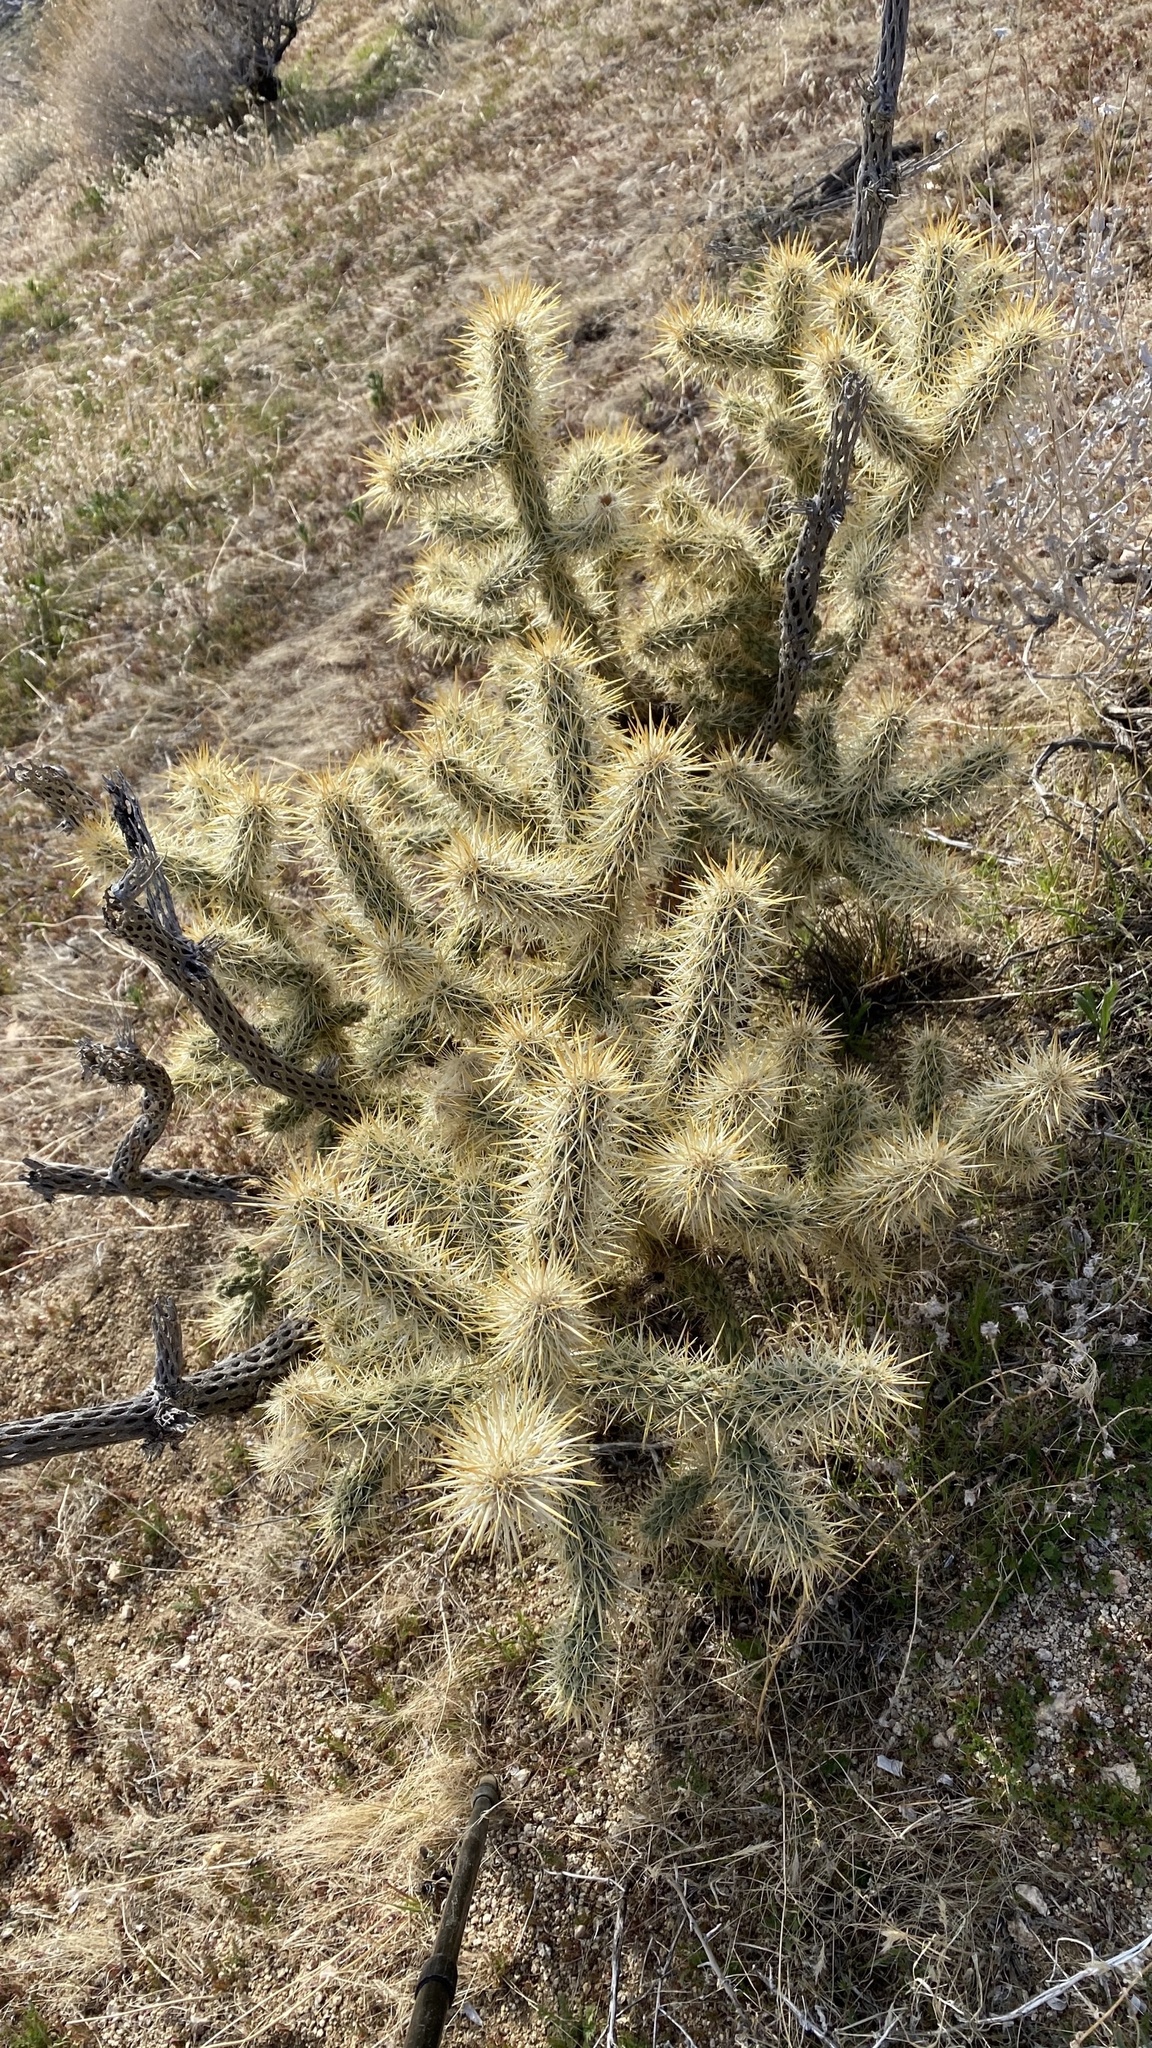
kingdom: Plantae
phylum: Tracheophyta
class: Magnoliopsida
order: Caryophyllales
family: Cactaceae
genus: Cylindropuntia
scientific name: Cylindropuntia echinocarpa
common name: Ground cholla
